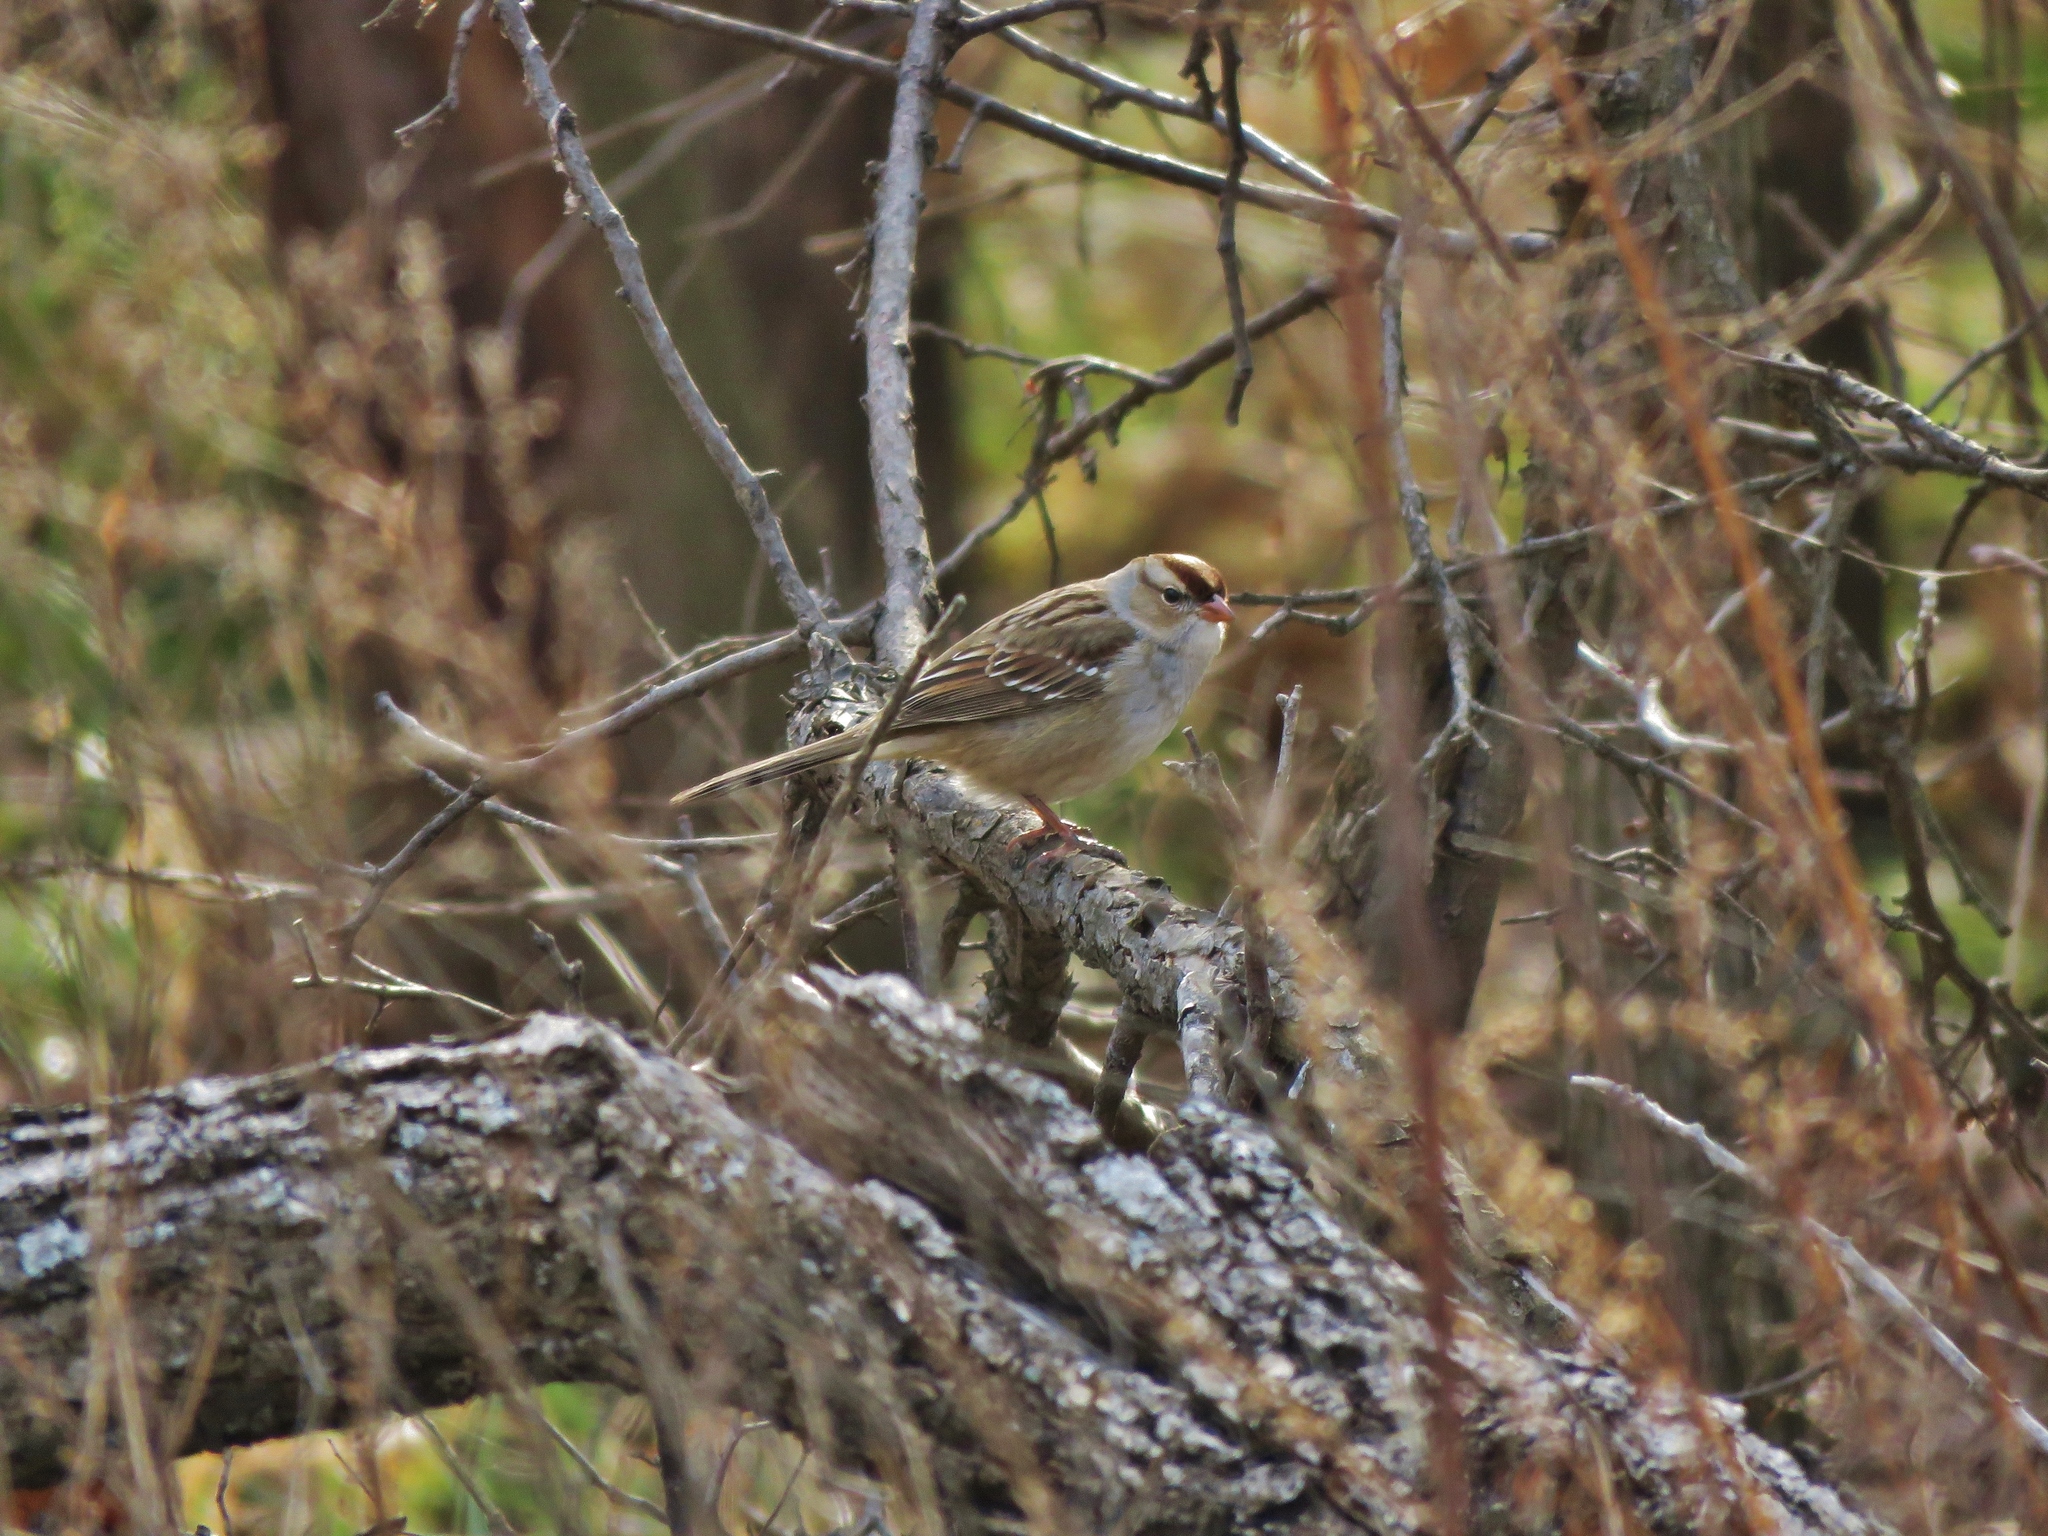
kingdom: Animalia
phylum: Chordata
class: Aves
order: Passeriformes
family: Passerellidae
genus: Zonotrichia
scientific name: Zonotrichia leucophrys
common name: White-crowned sparrow
